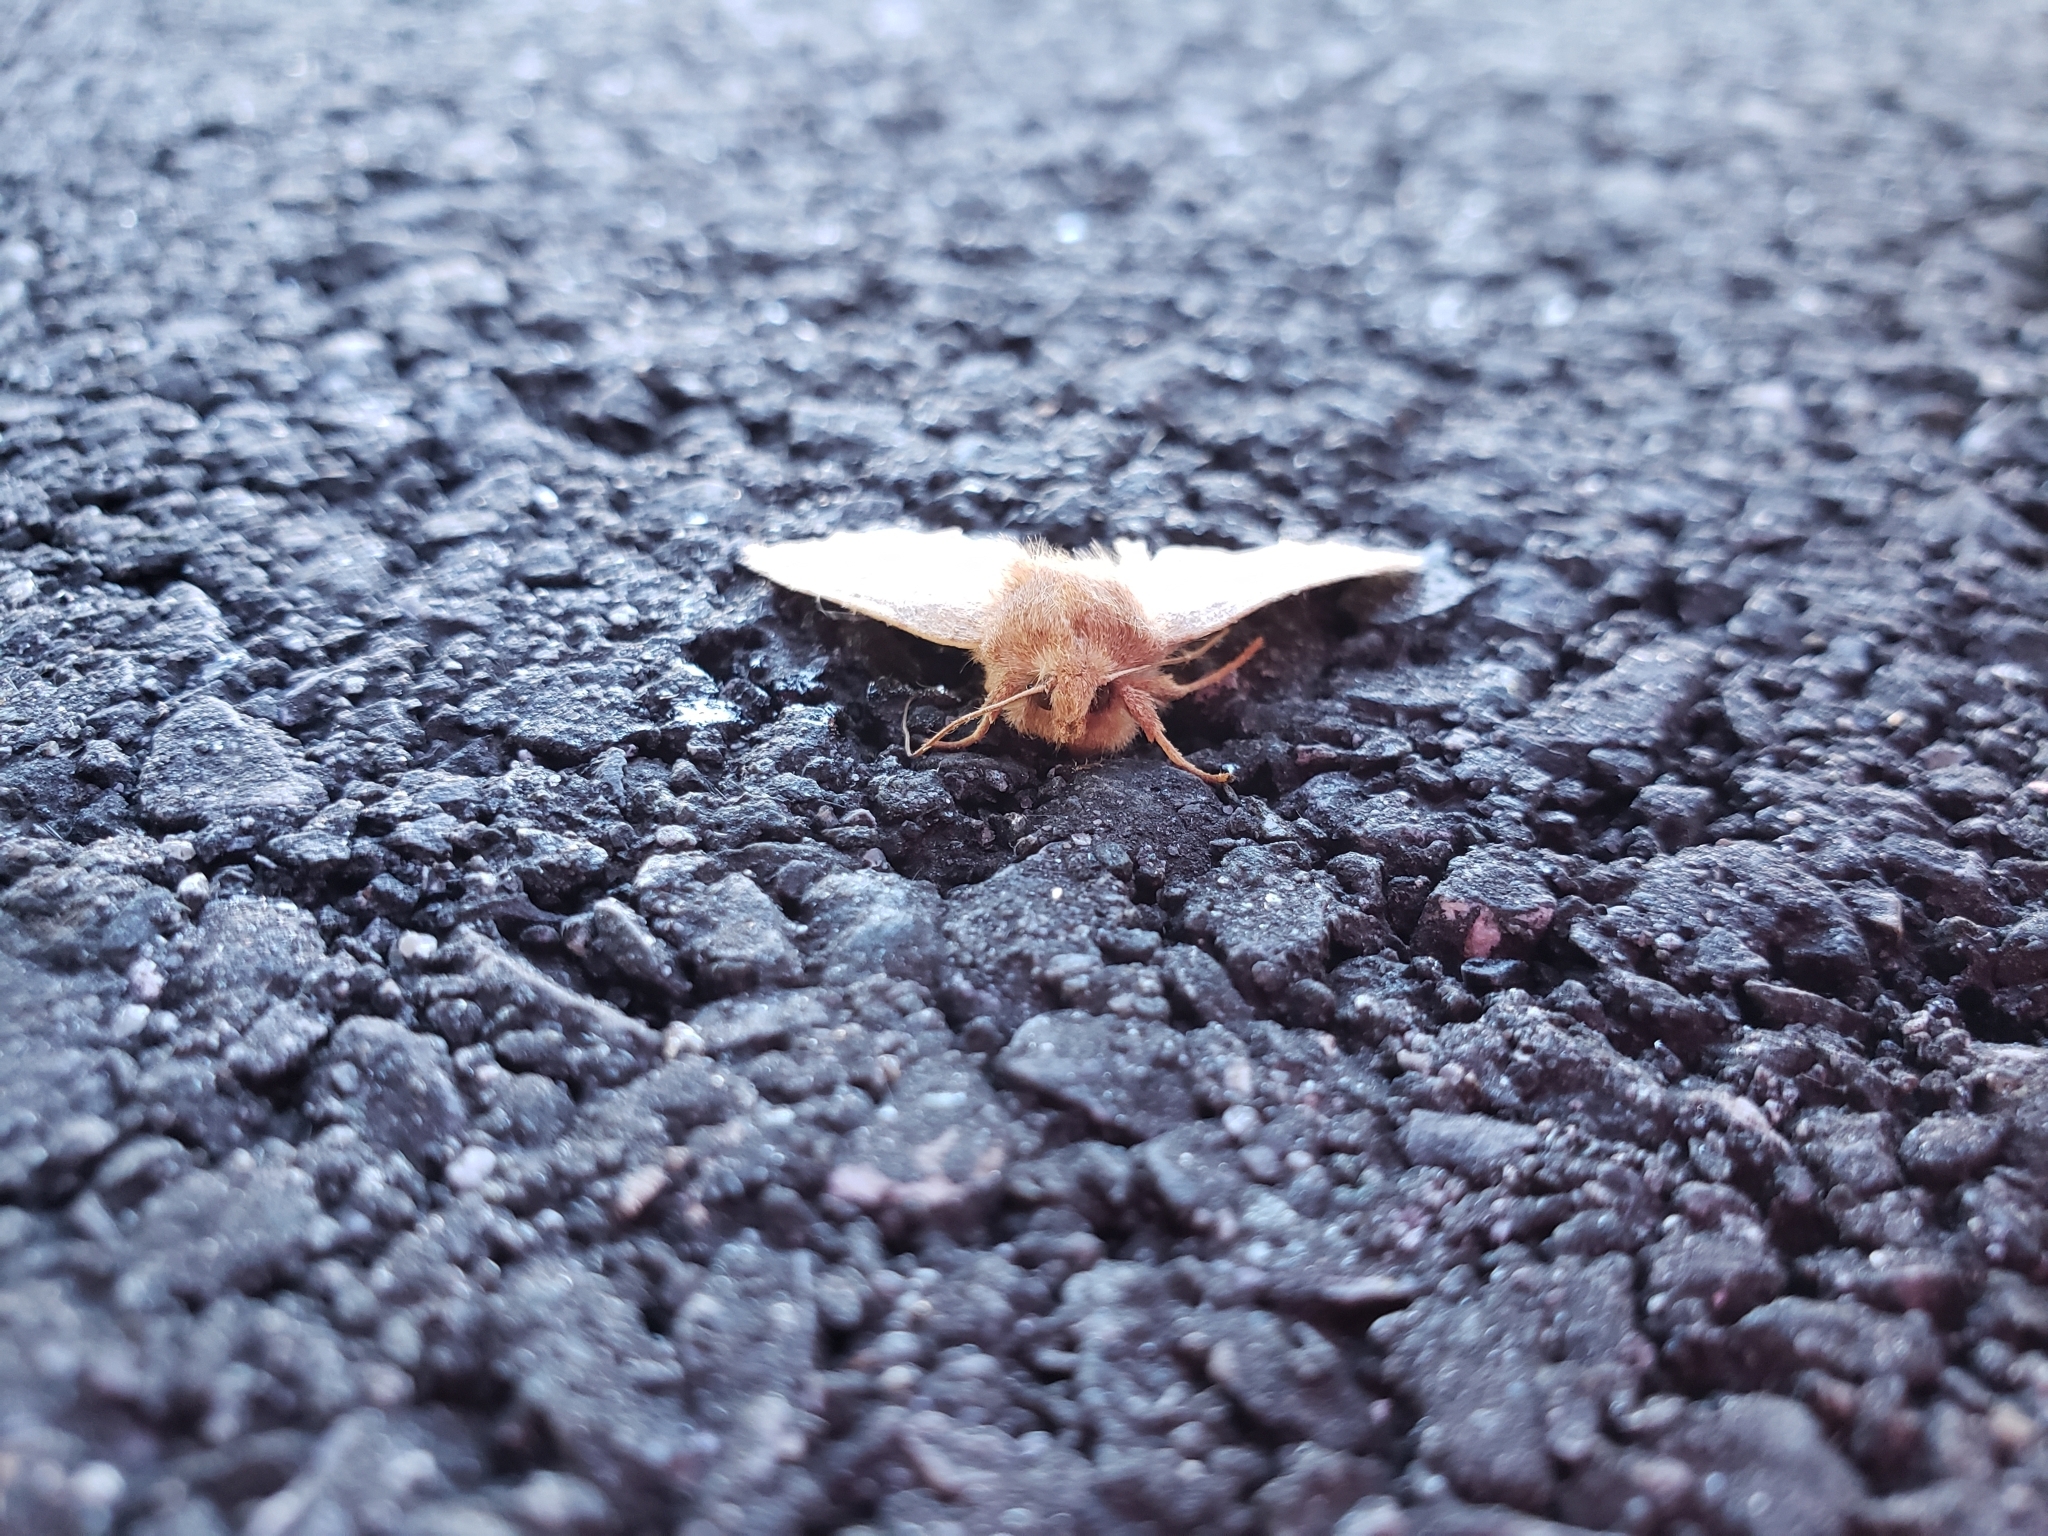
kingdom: Animalia
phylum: Arthropoda
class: Insecta
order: Lepidoptera
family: Noctuidae
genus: Agrochola
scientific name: Agrochola bicolorago
